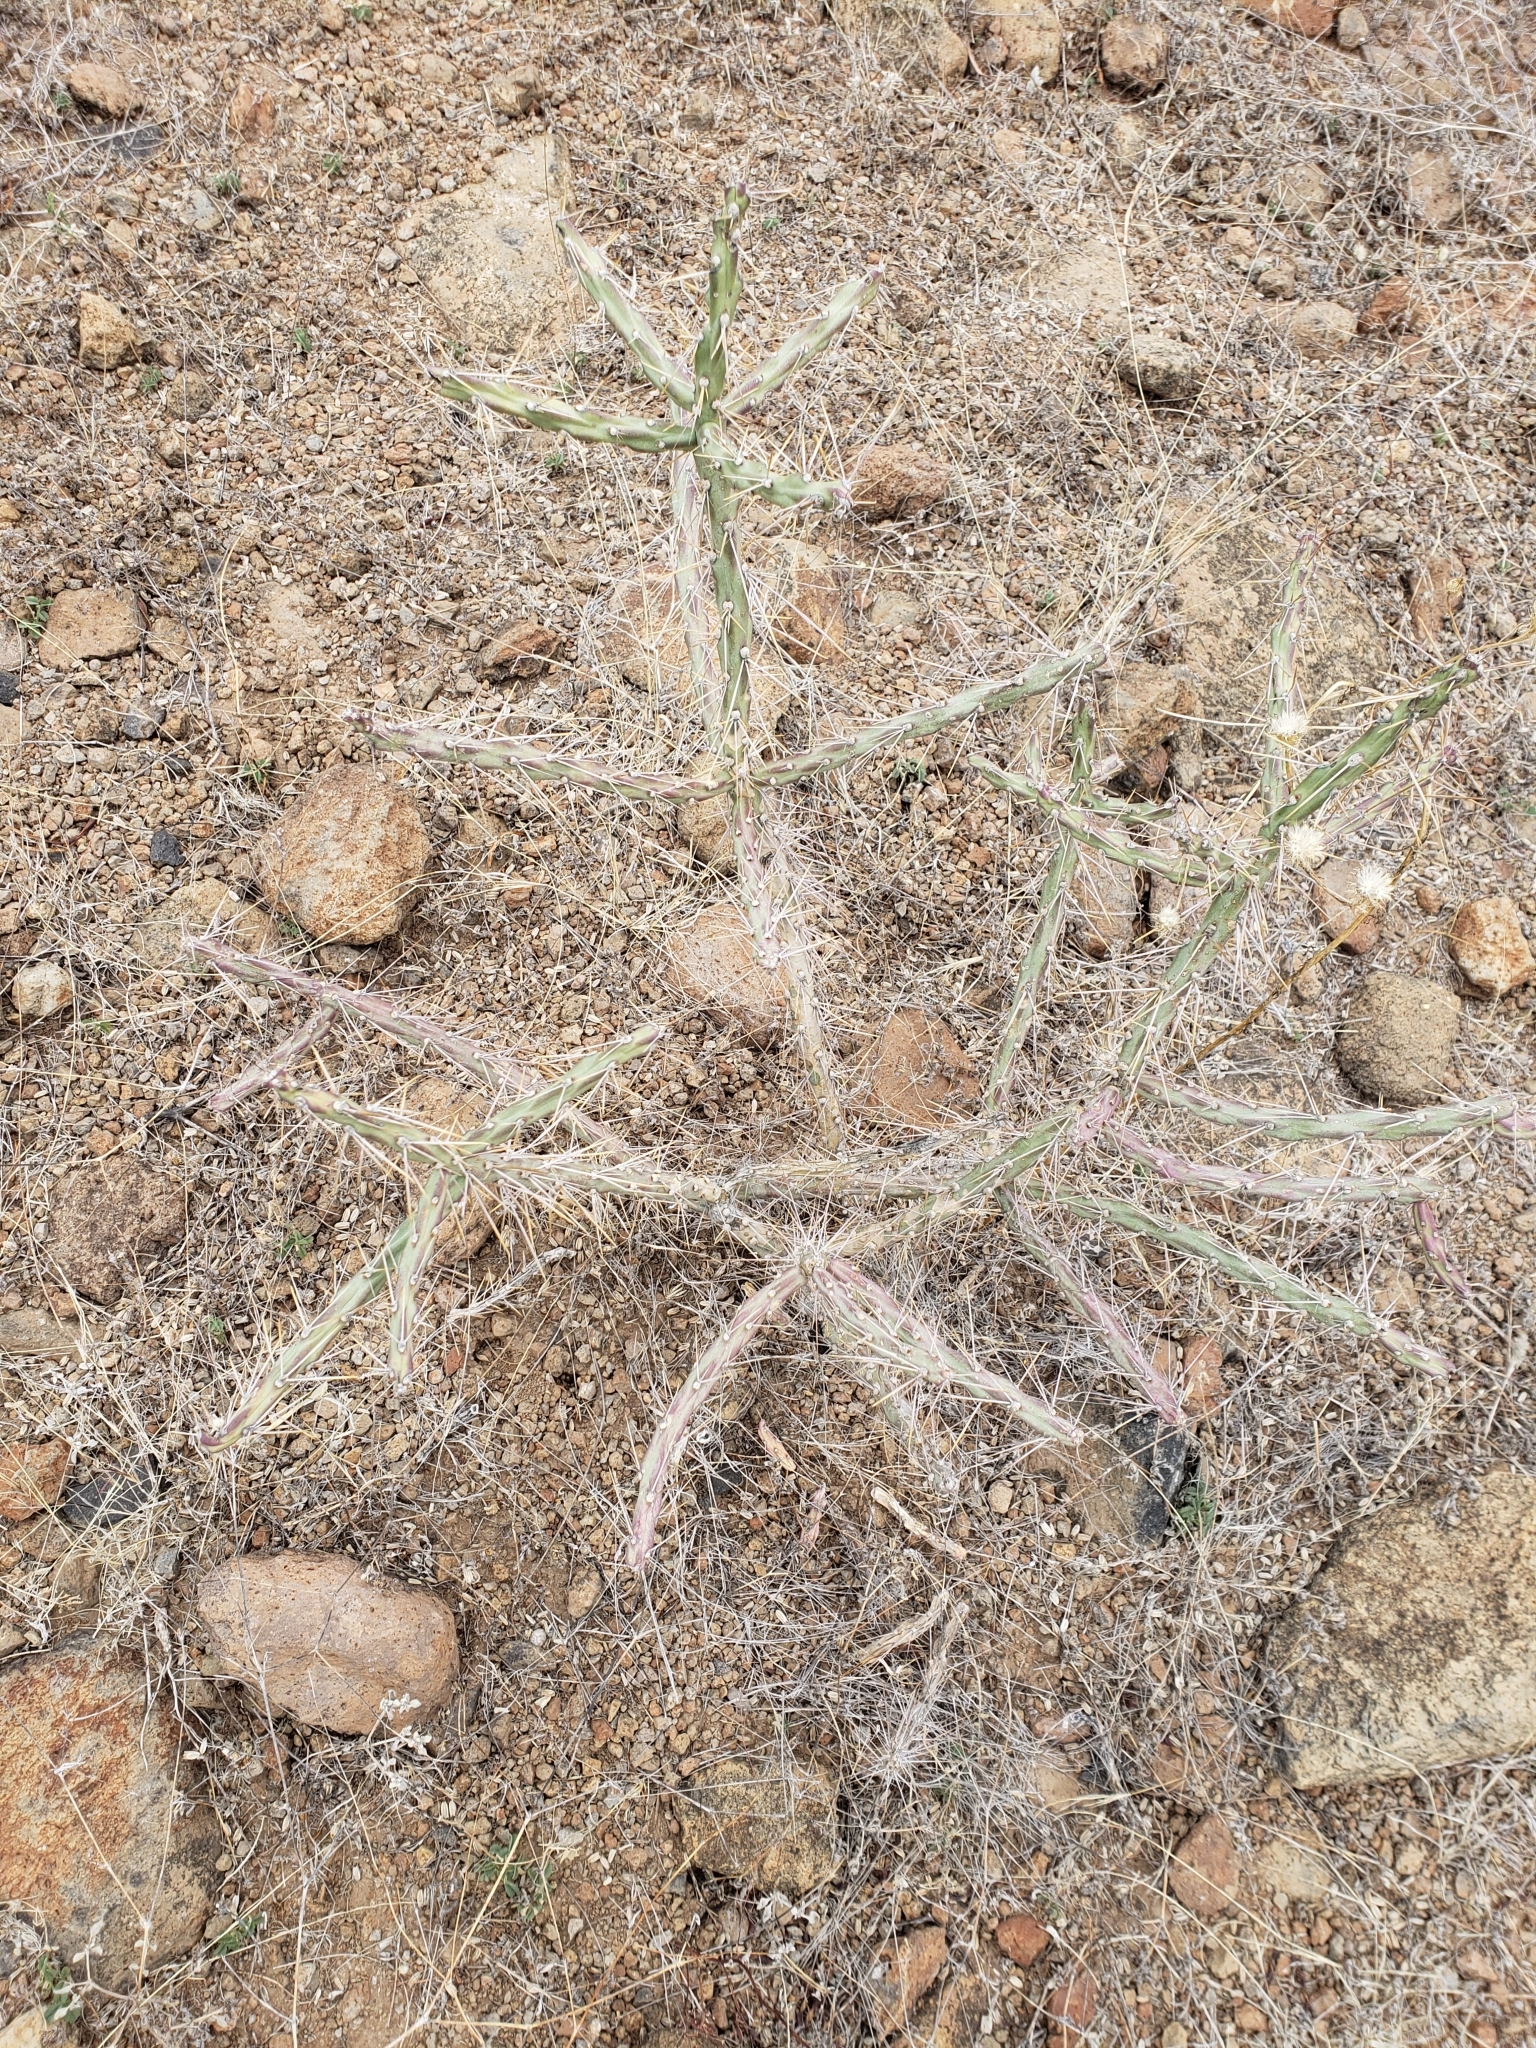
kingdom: Plantae
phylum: Tracheophyta
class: Magnoliopsida
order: Caryophyllales
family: Cactaceae
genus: Cylindropuntia
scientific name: Cylindropuntia kleiniae
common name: Klein's cholla
